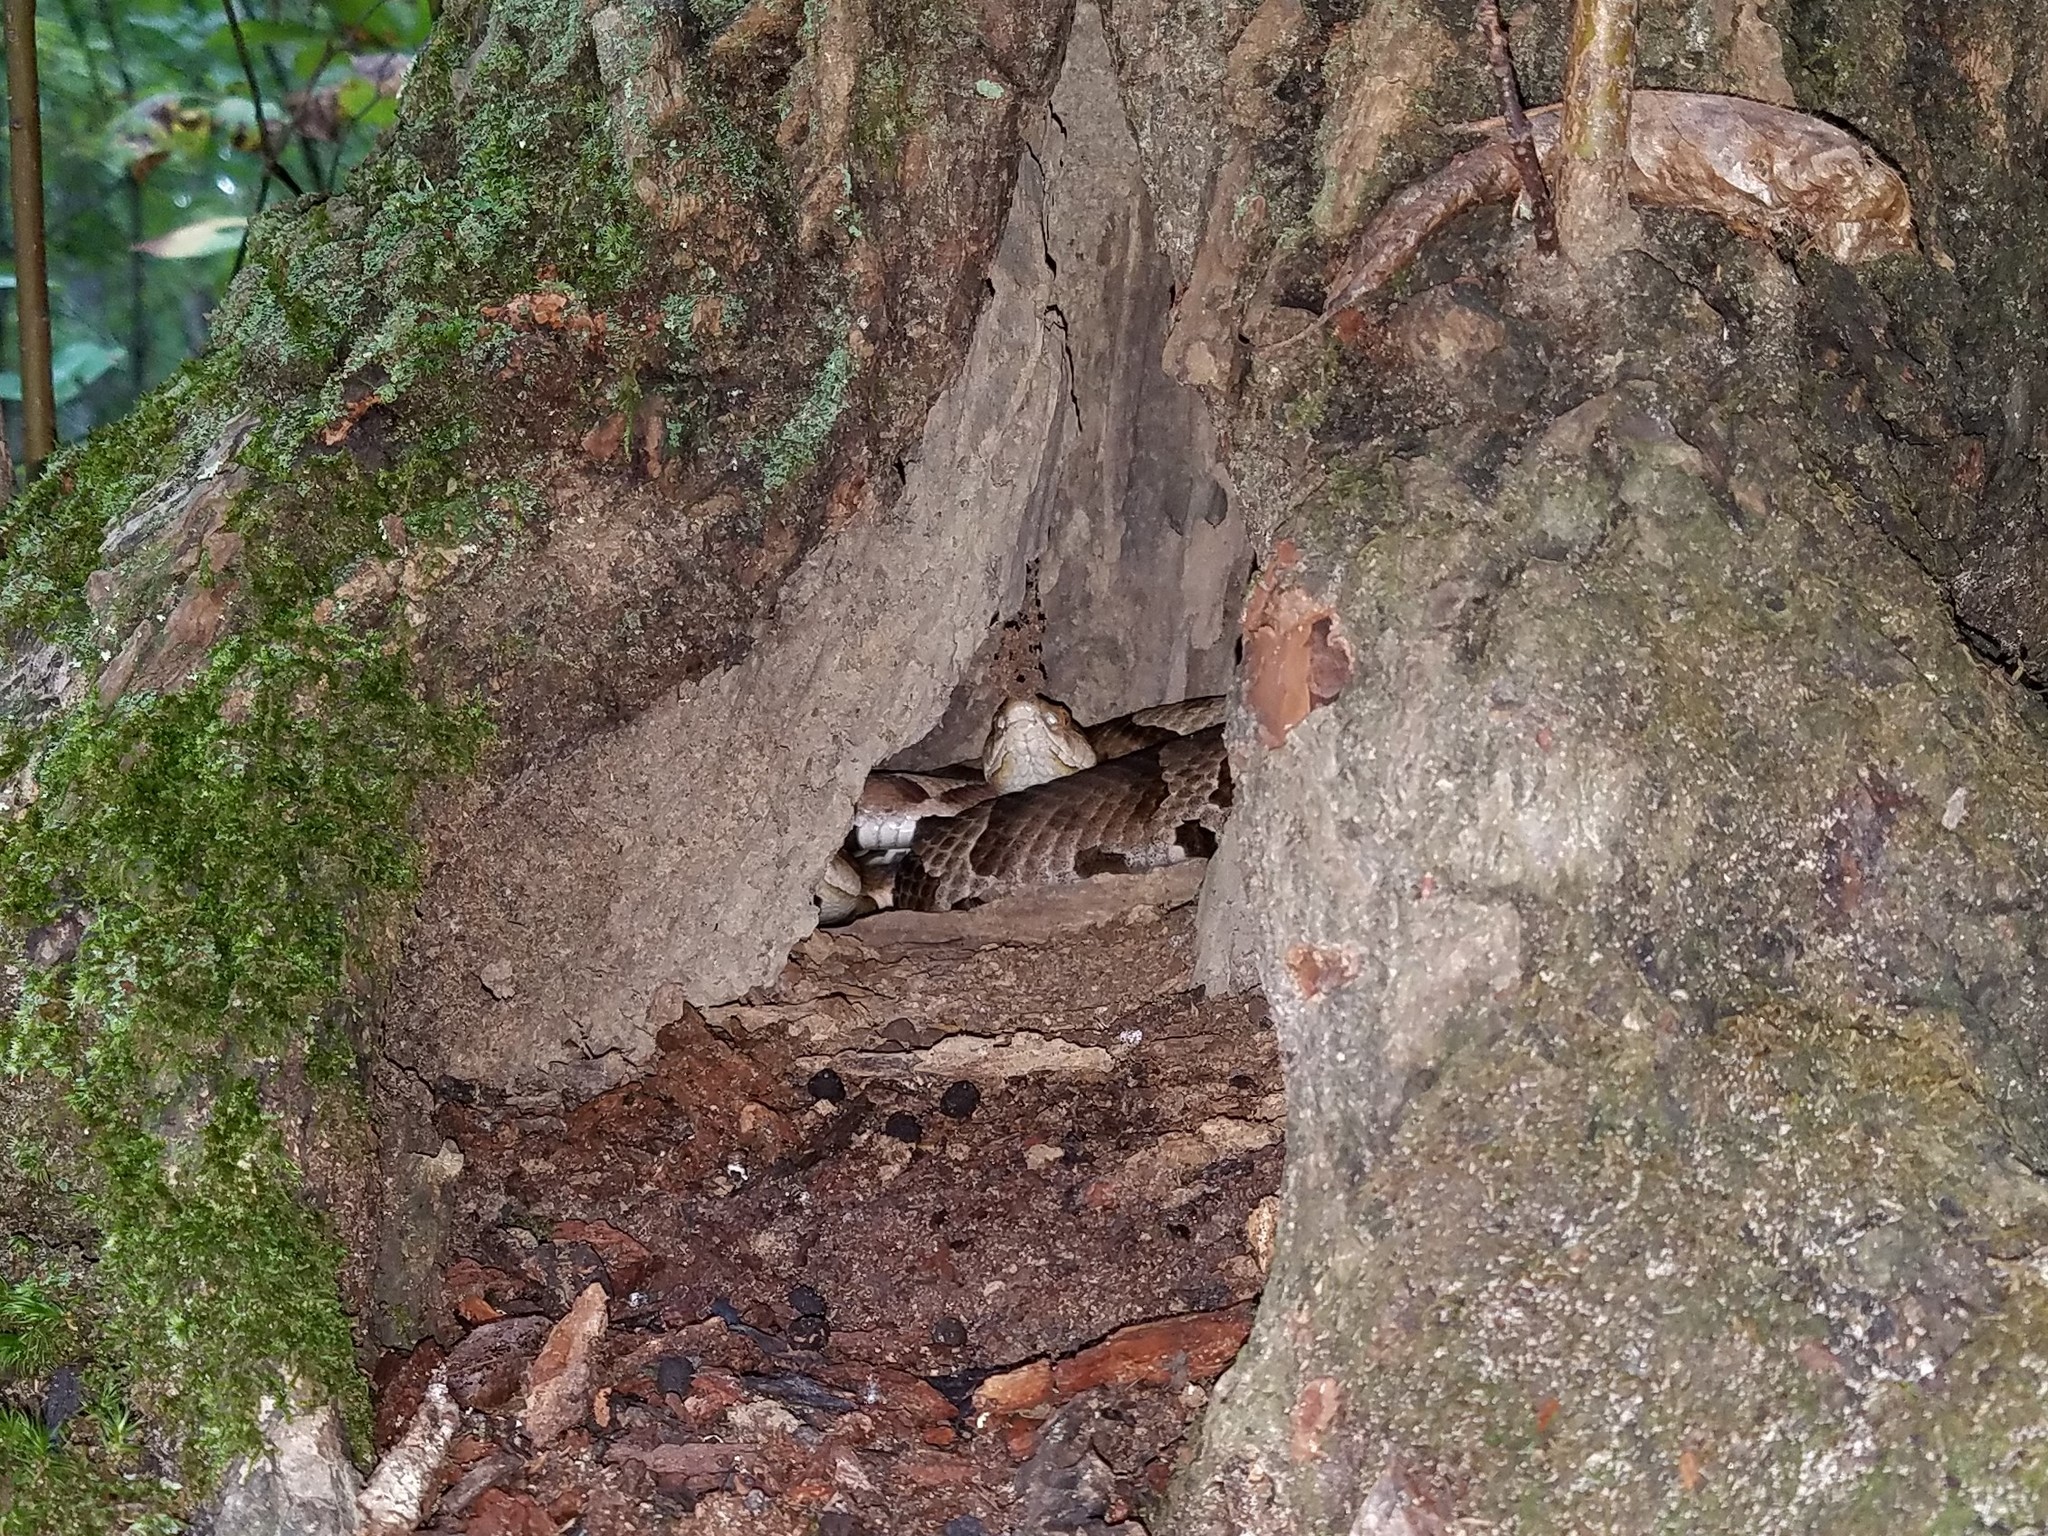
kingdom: Animalia
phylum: Chordata
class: Squamata
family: Viperidae
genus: Agkistrodon
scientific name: Agkistrodon contortrix
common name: Northern copperhead
